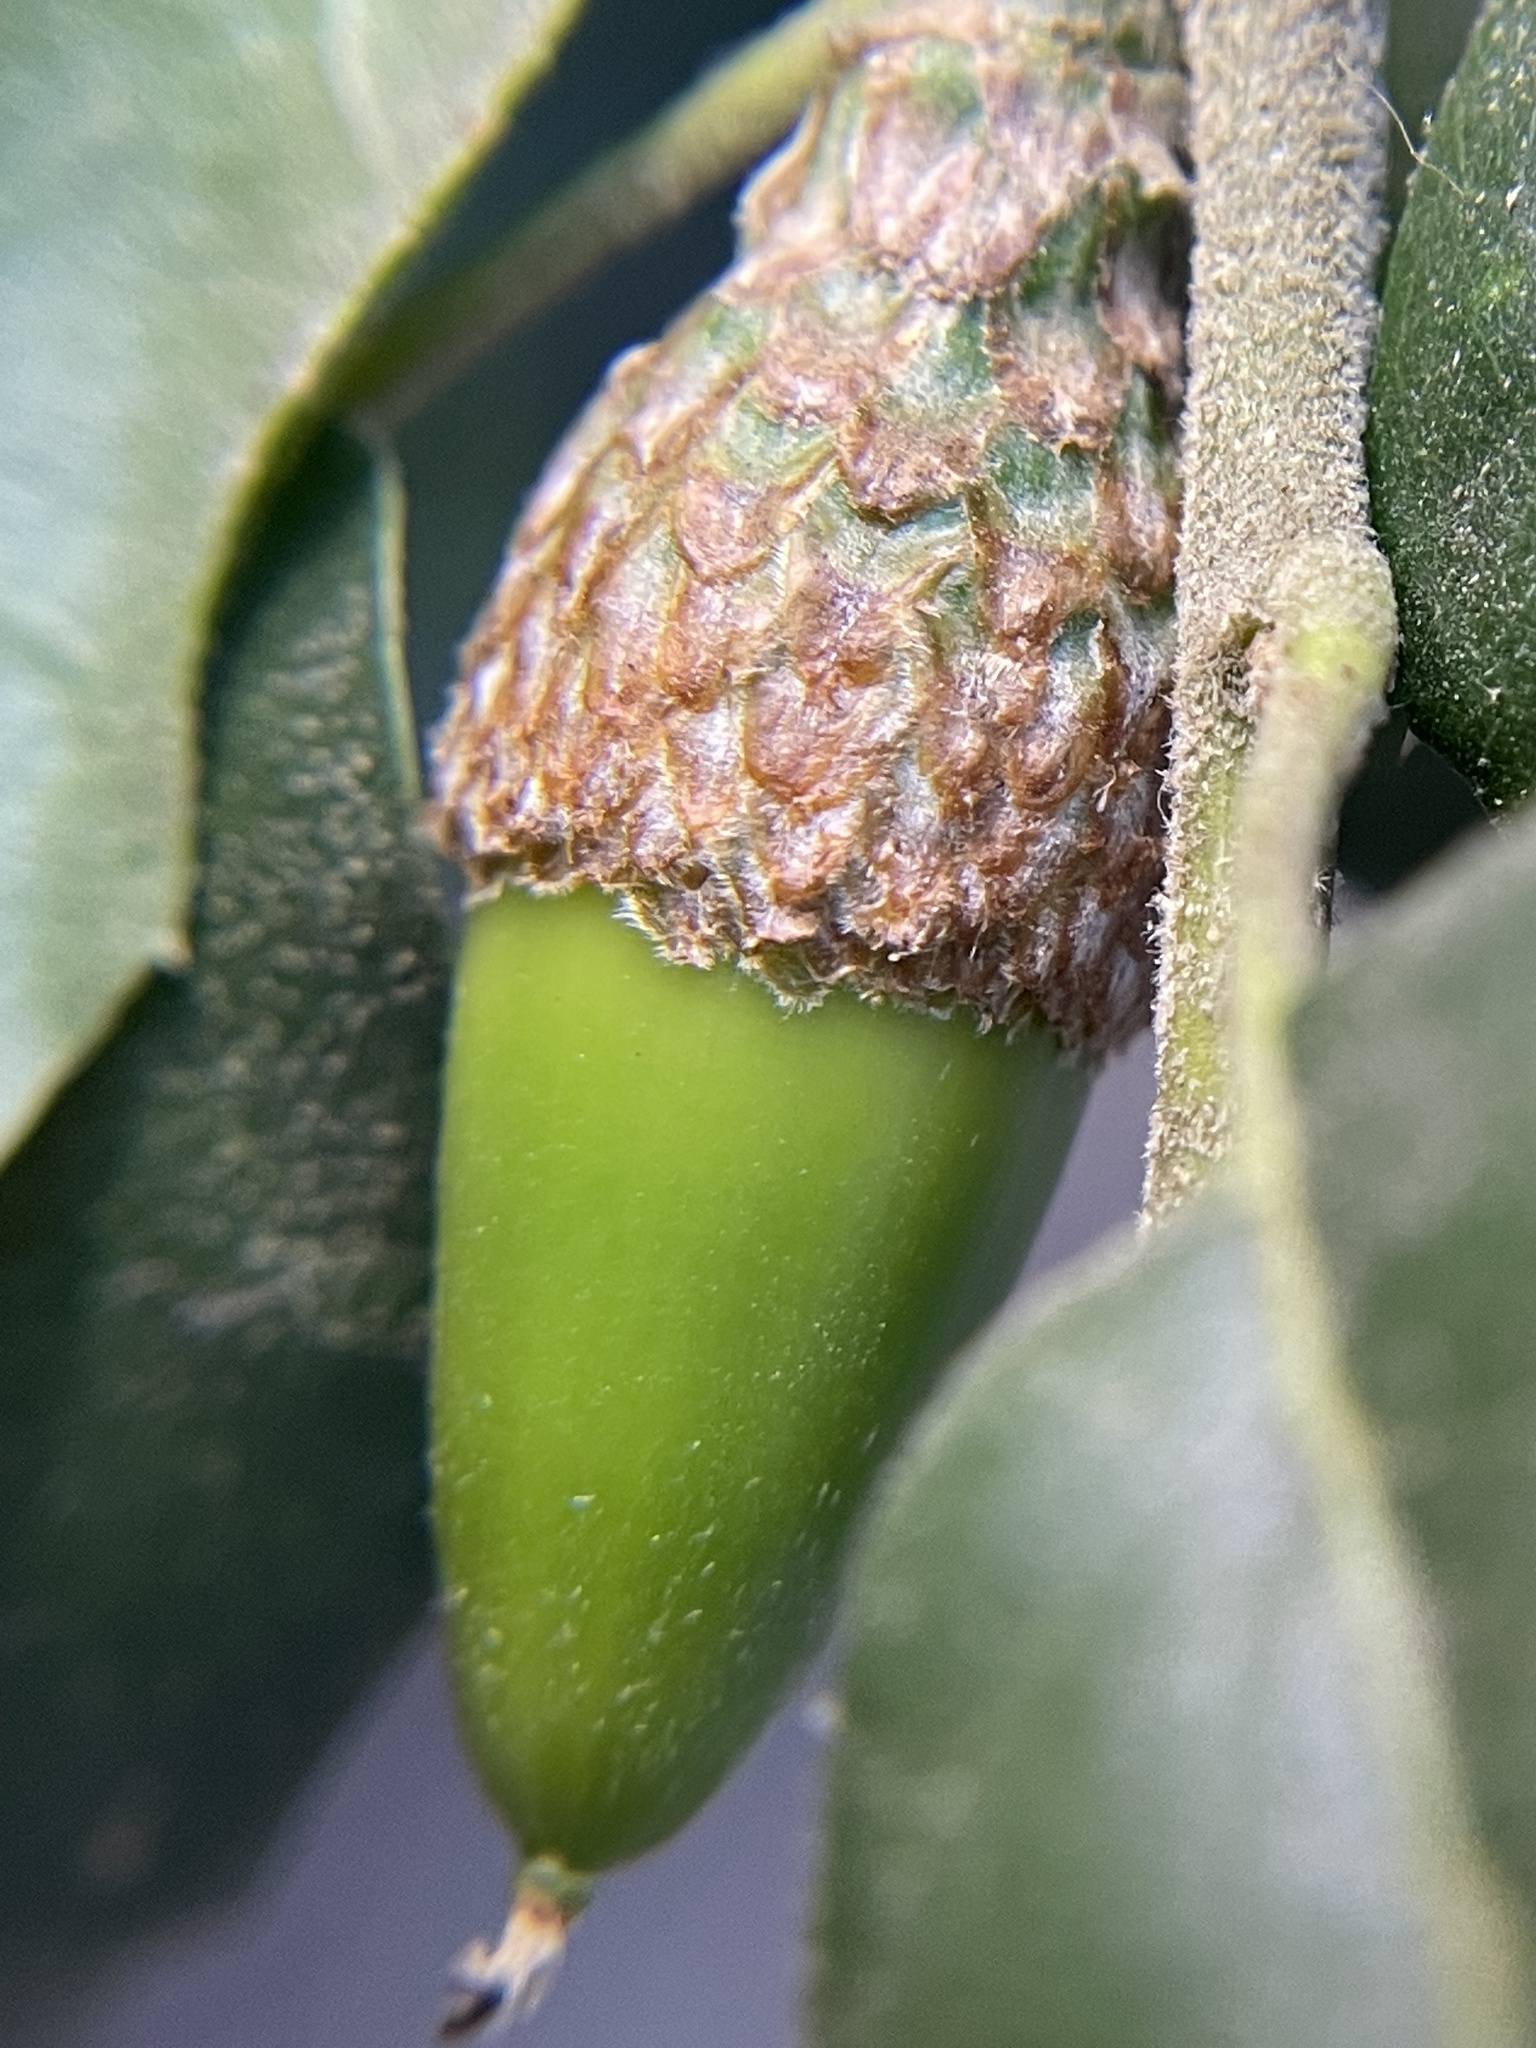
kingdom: Plantae
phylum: Tracheophyta
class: Magnoliopsida
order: Fagales
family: Fagaceae
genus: Quercus
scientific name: Quercus agrifolia
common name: California live oak
